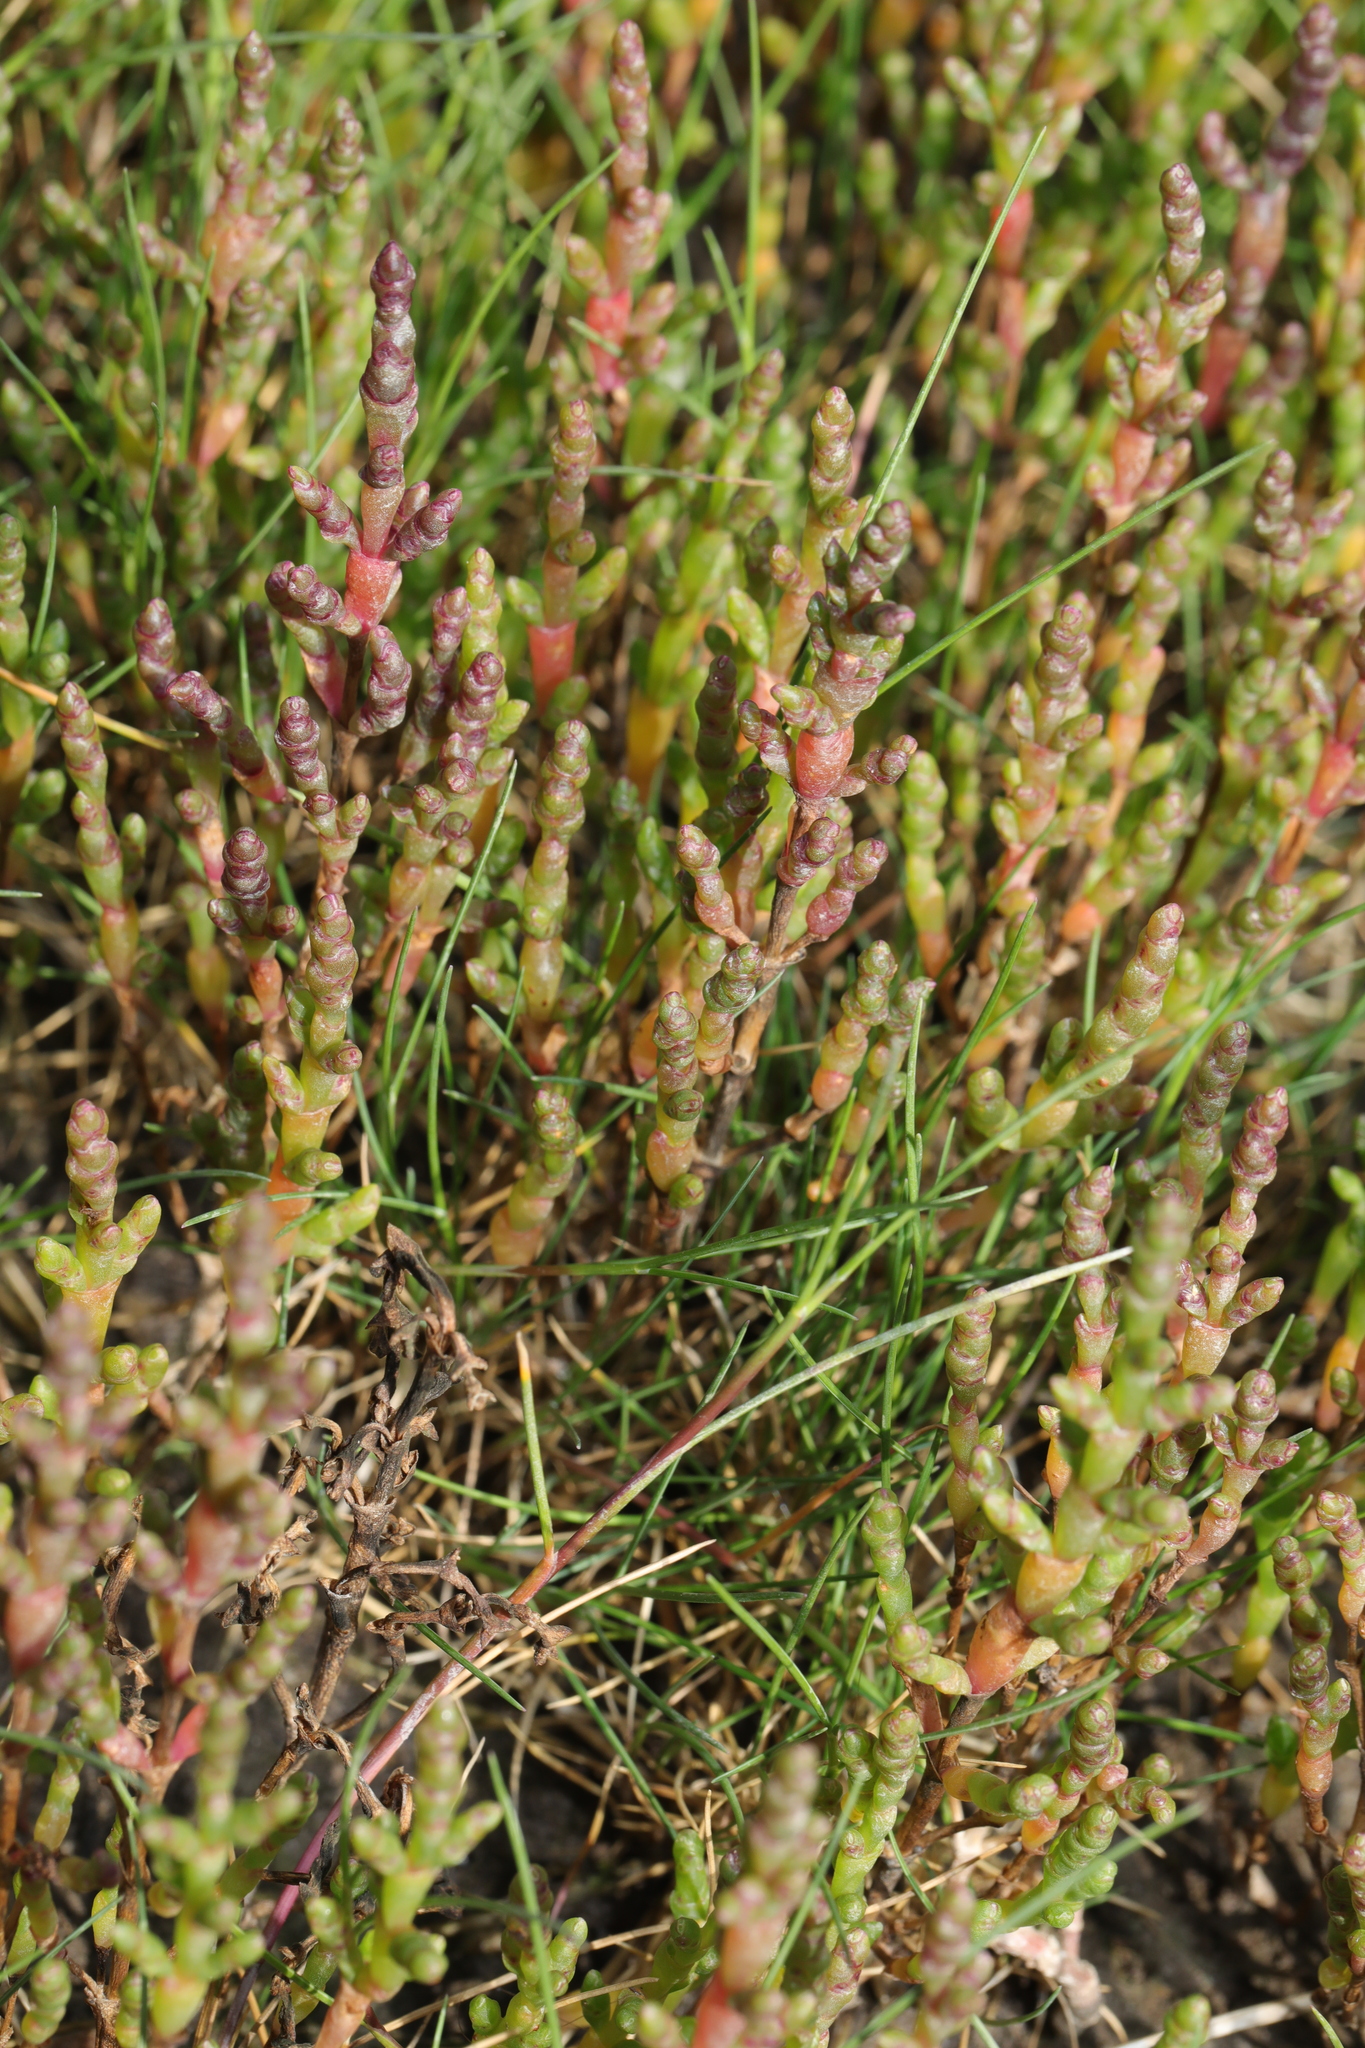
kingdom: Plantae
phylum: Tracheophyta
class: Magnoliopsida
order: Caryophyllales
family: Amaranthaceae
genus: Salicornia
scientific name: Salicornia europaea
